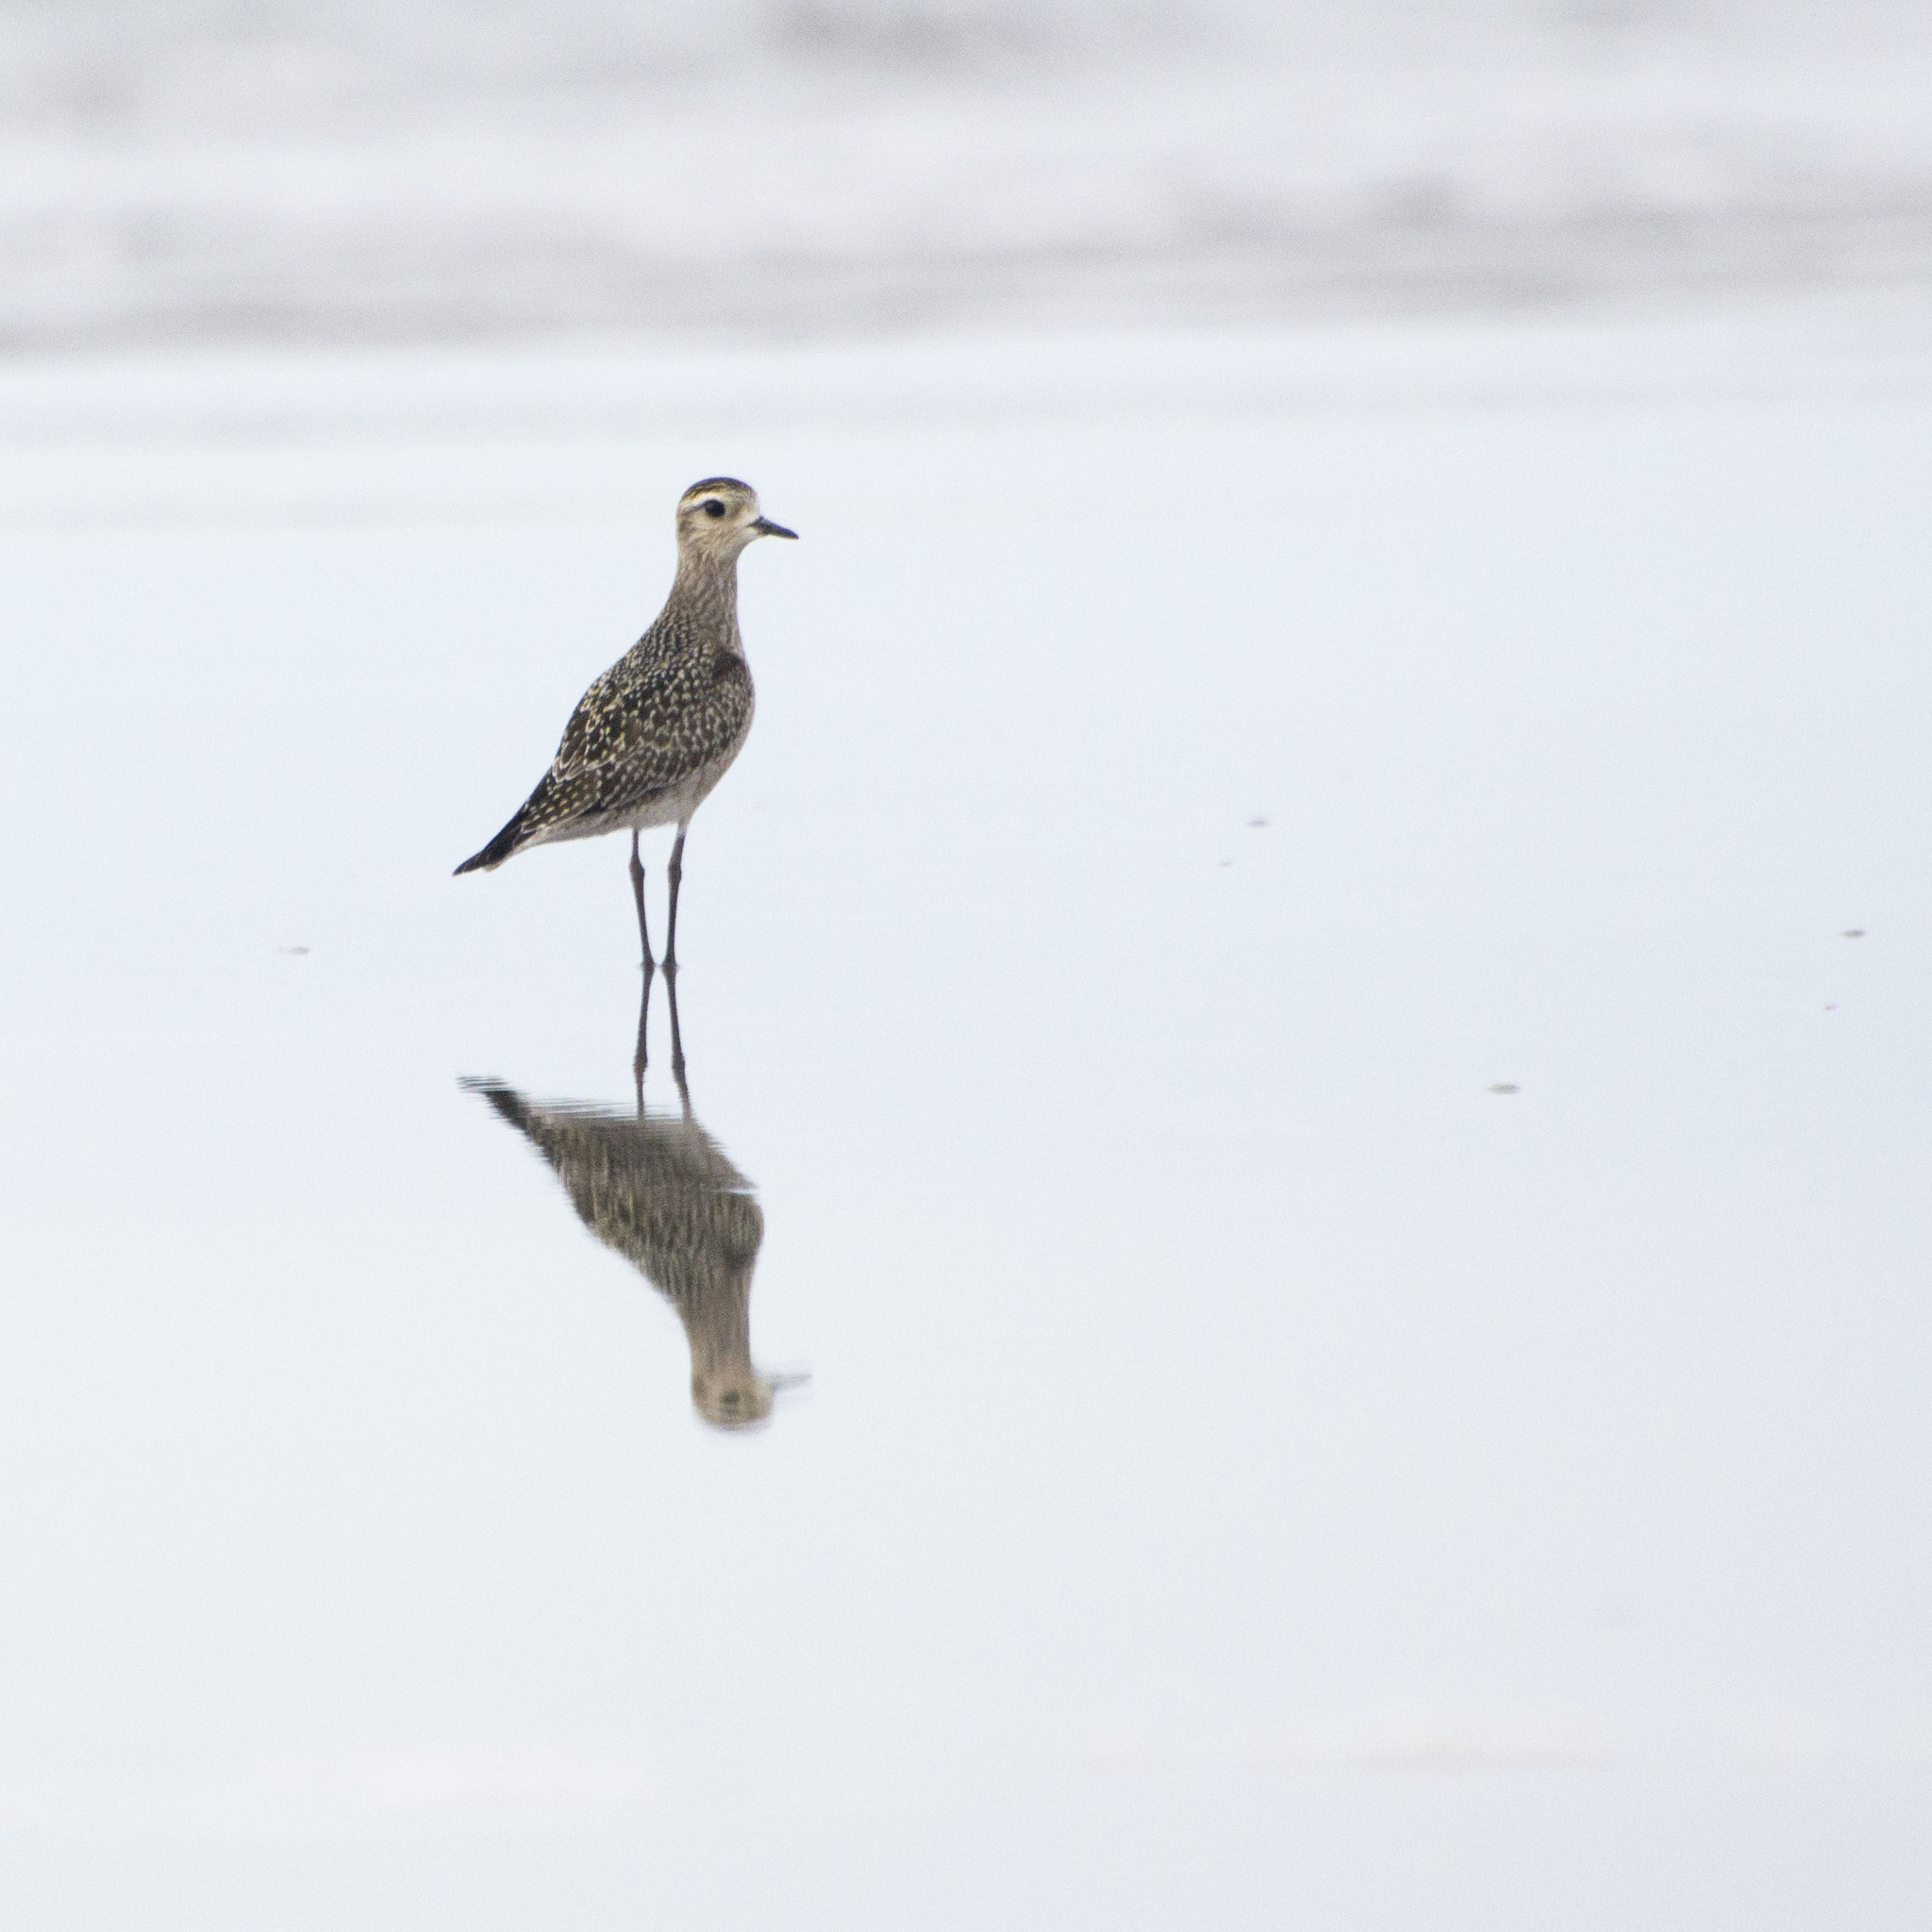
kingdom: Animalia
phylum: Chordata
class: Aves
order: Charadriiformes
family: Charadriidae
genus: Pluvialis
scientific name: Pluvialis dominica
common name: American golden plover
